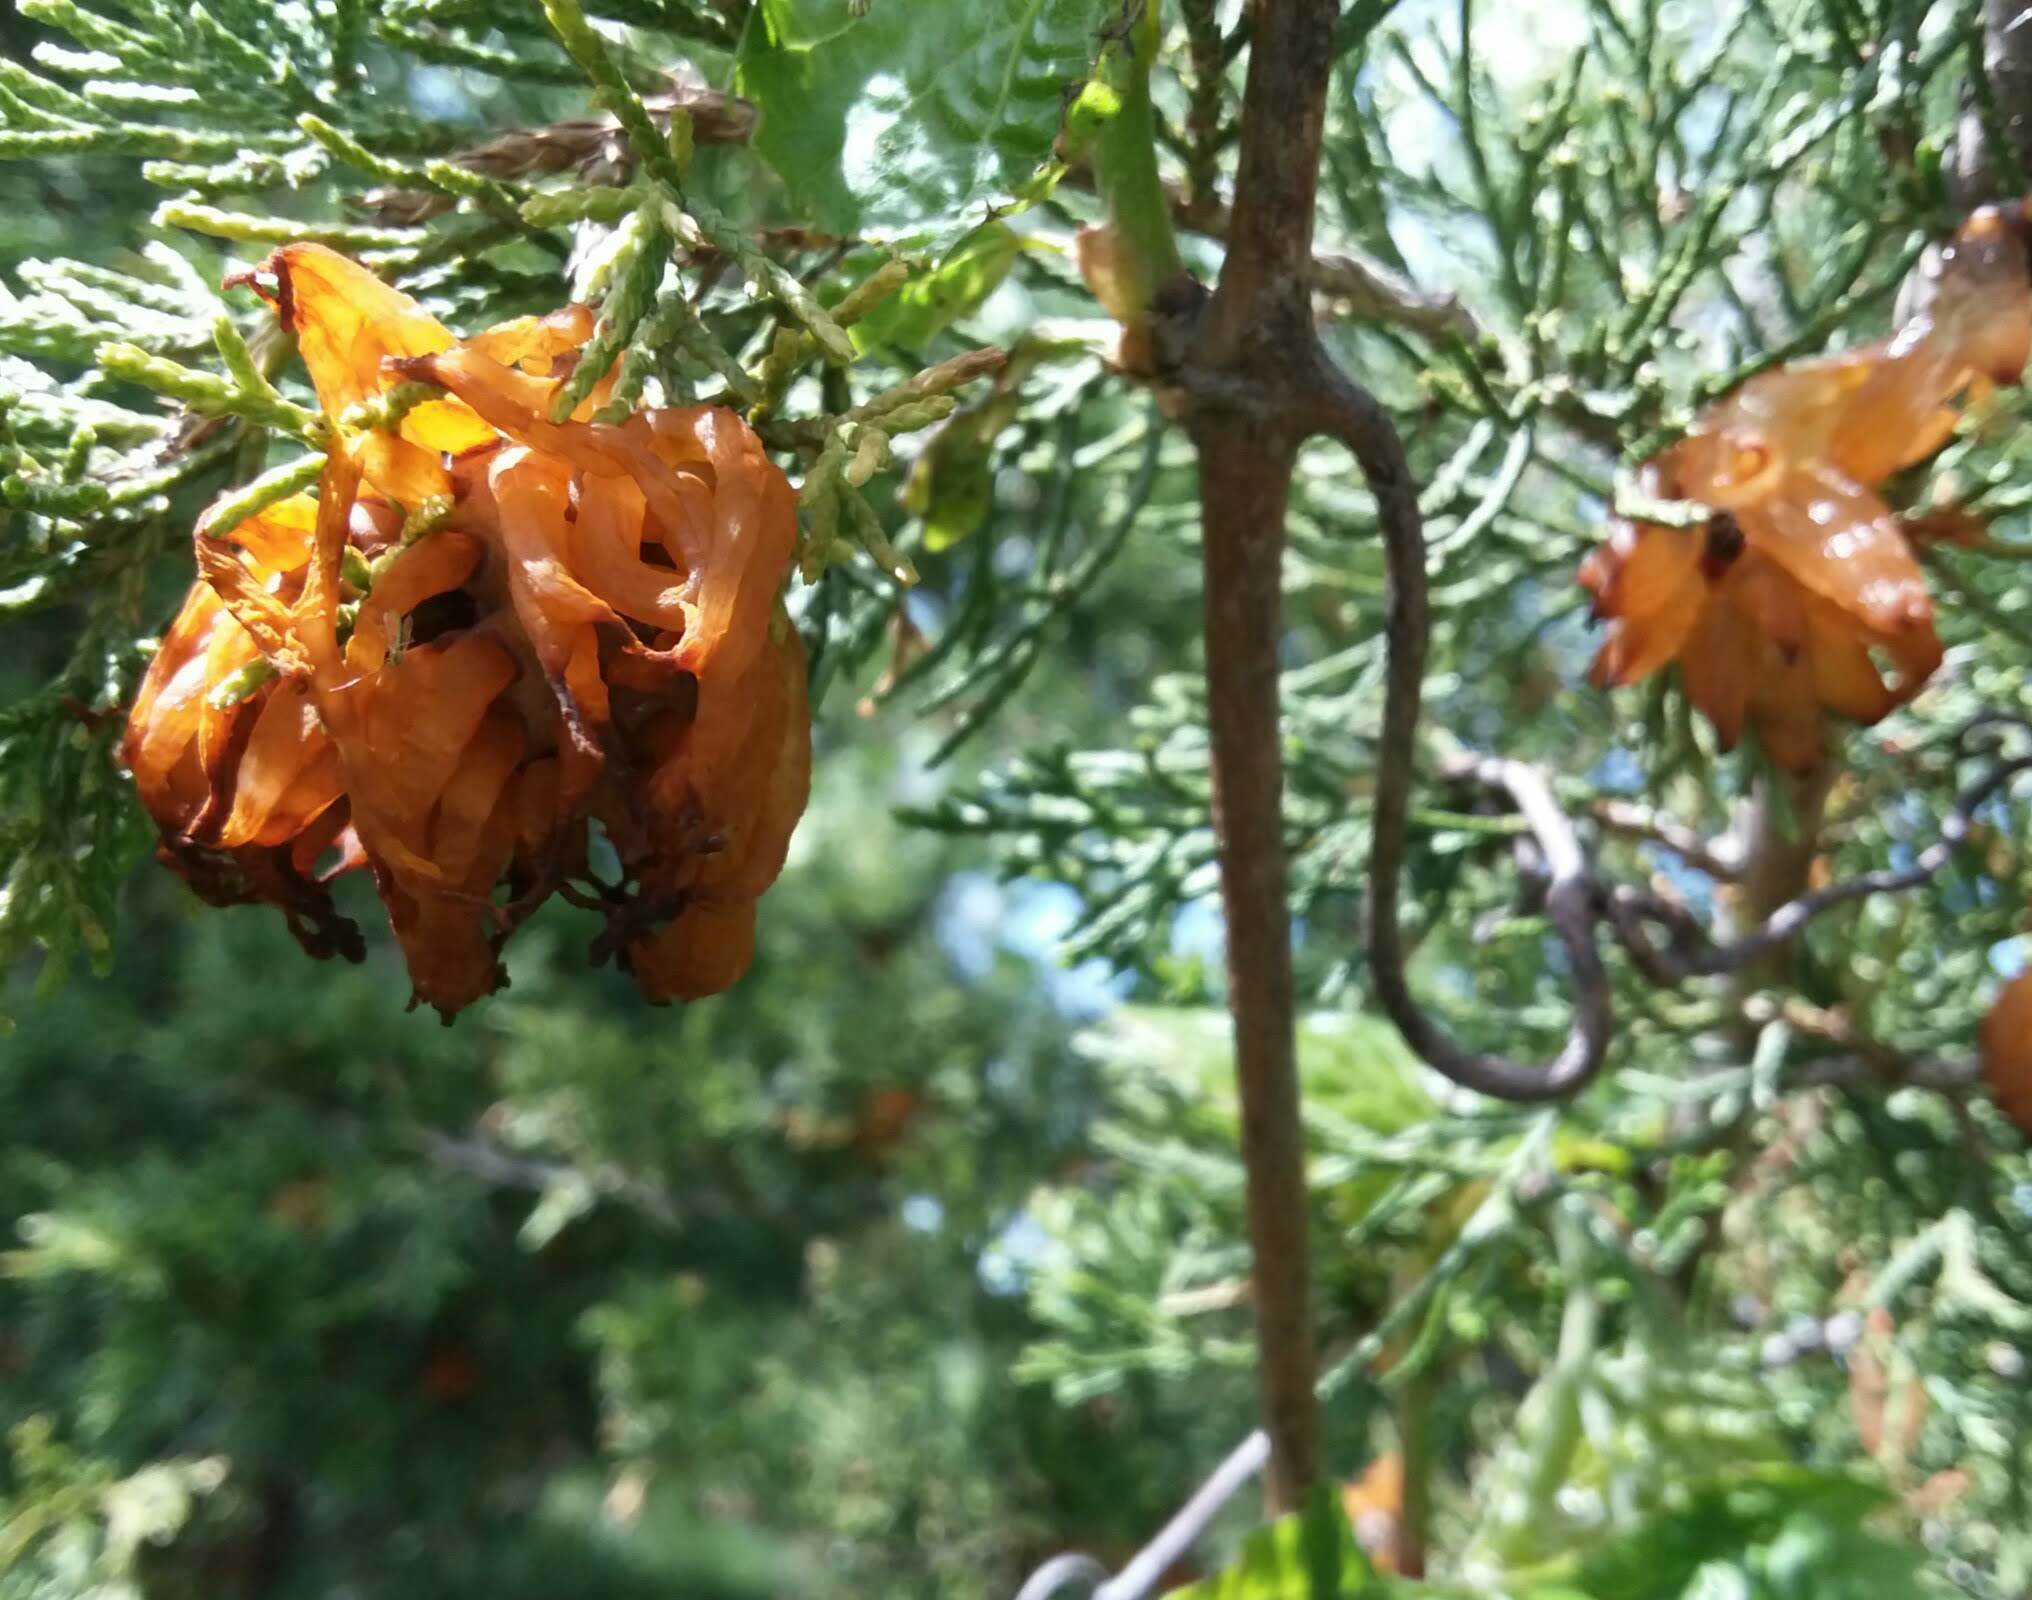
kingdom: Fungi
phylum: Basidiomycota
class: Pucciniomycetes
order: Pucciniales
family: Gymnosporangiaceae
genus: Gymnosporangium
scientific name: Gymnosporangium juniperi-virginianae
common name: Juniper-apple rust
